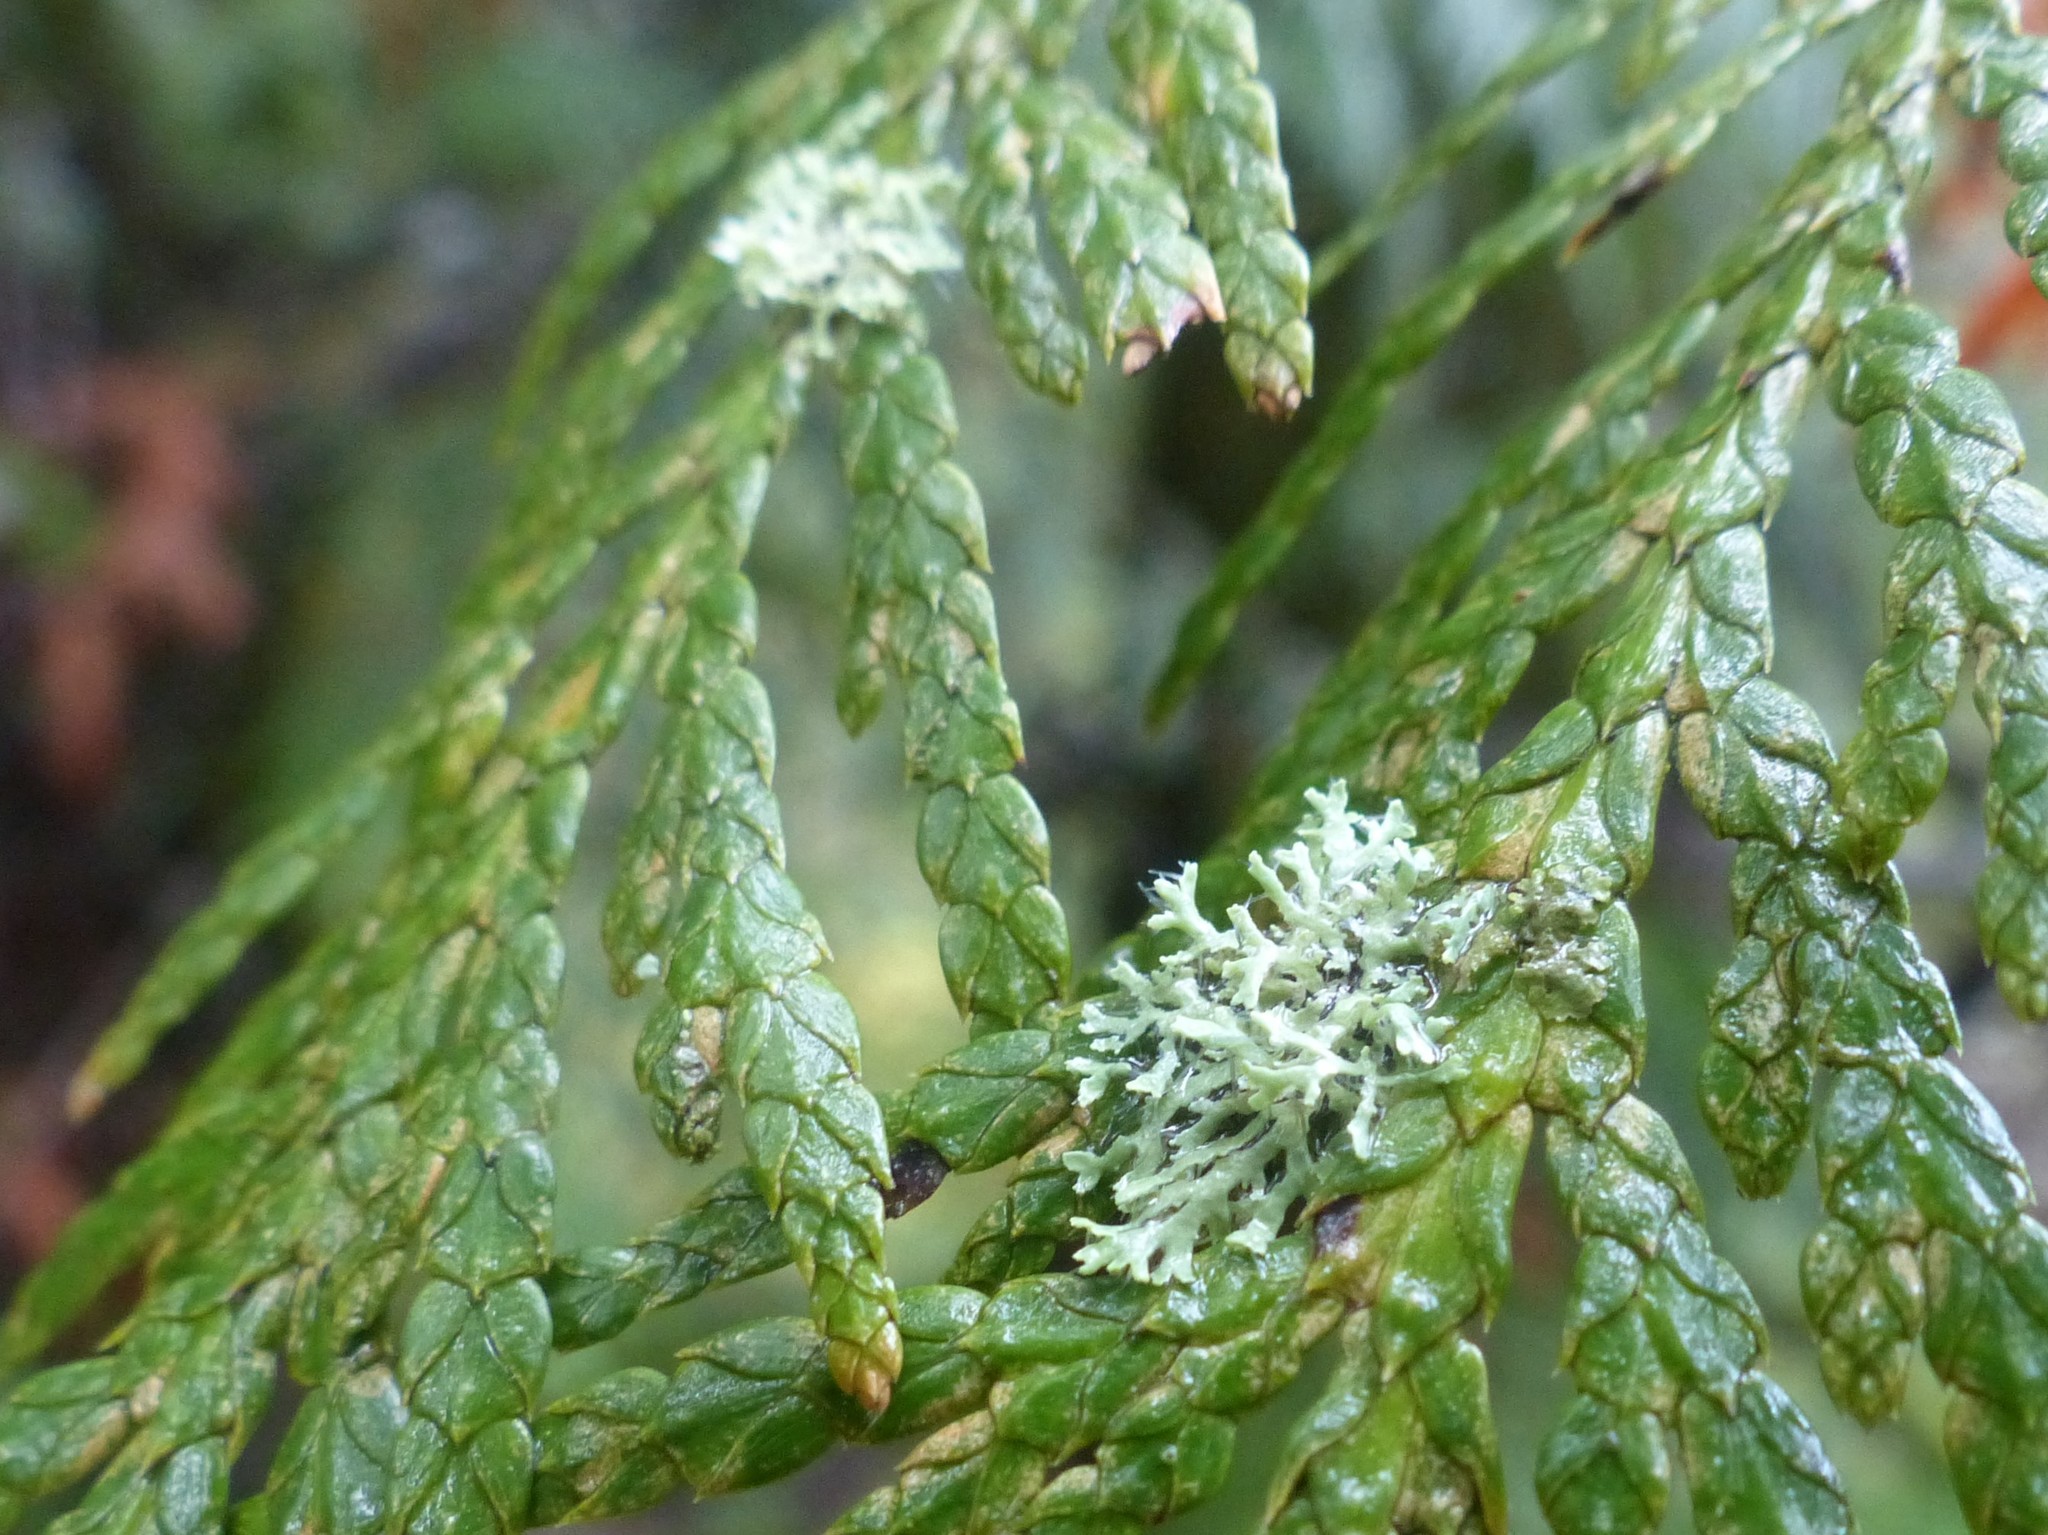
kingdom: Fungi
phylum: Ascomycota
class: Lecanoromycetes
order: Caliciales
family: Physciaceae
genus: Physcia
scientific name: Physcia tenella
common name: Fringed rosette lichen
